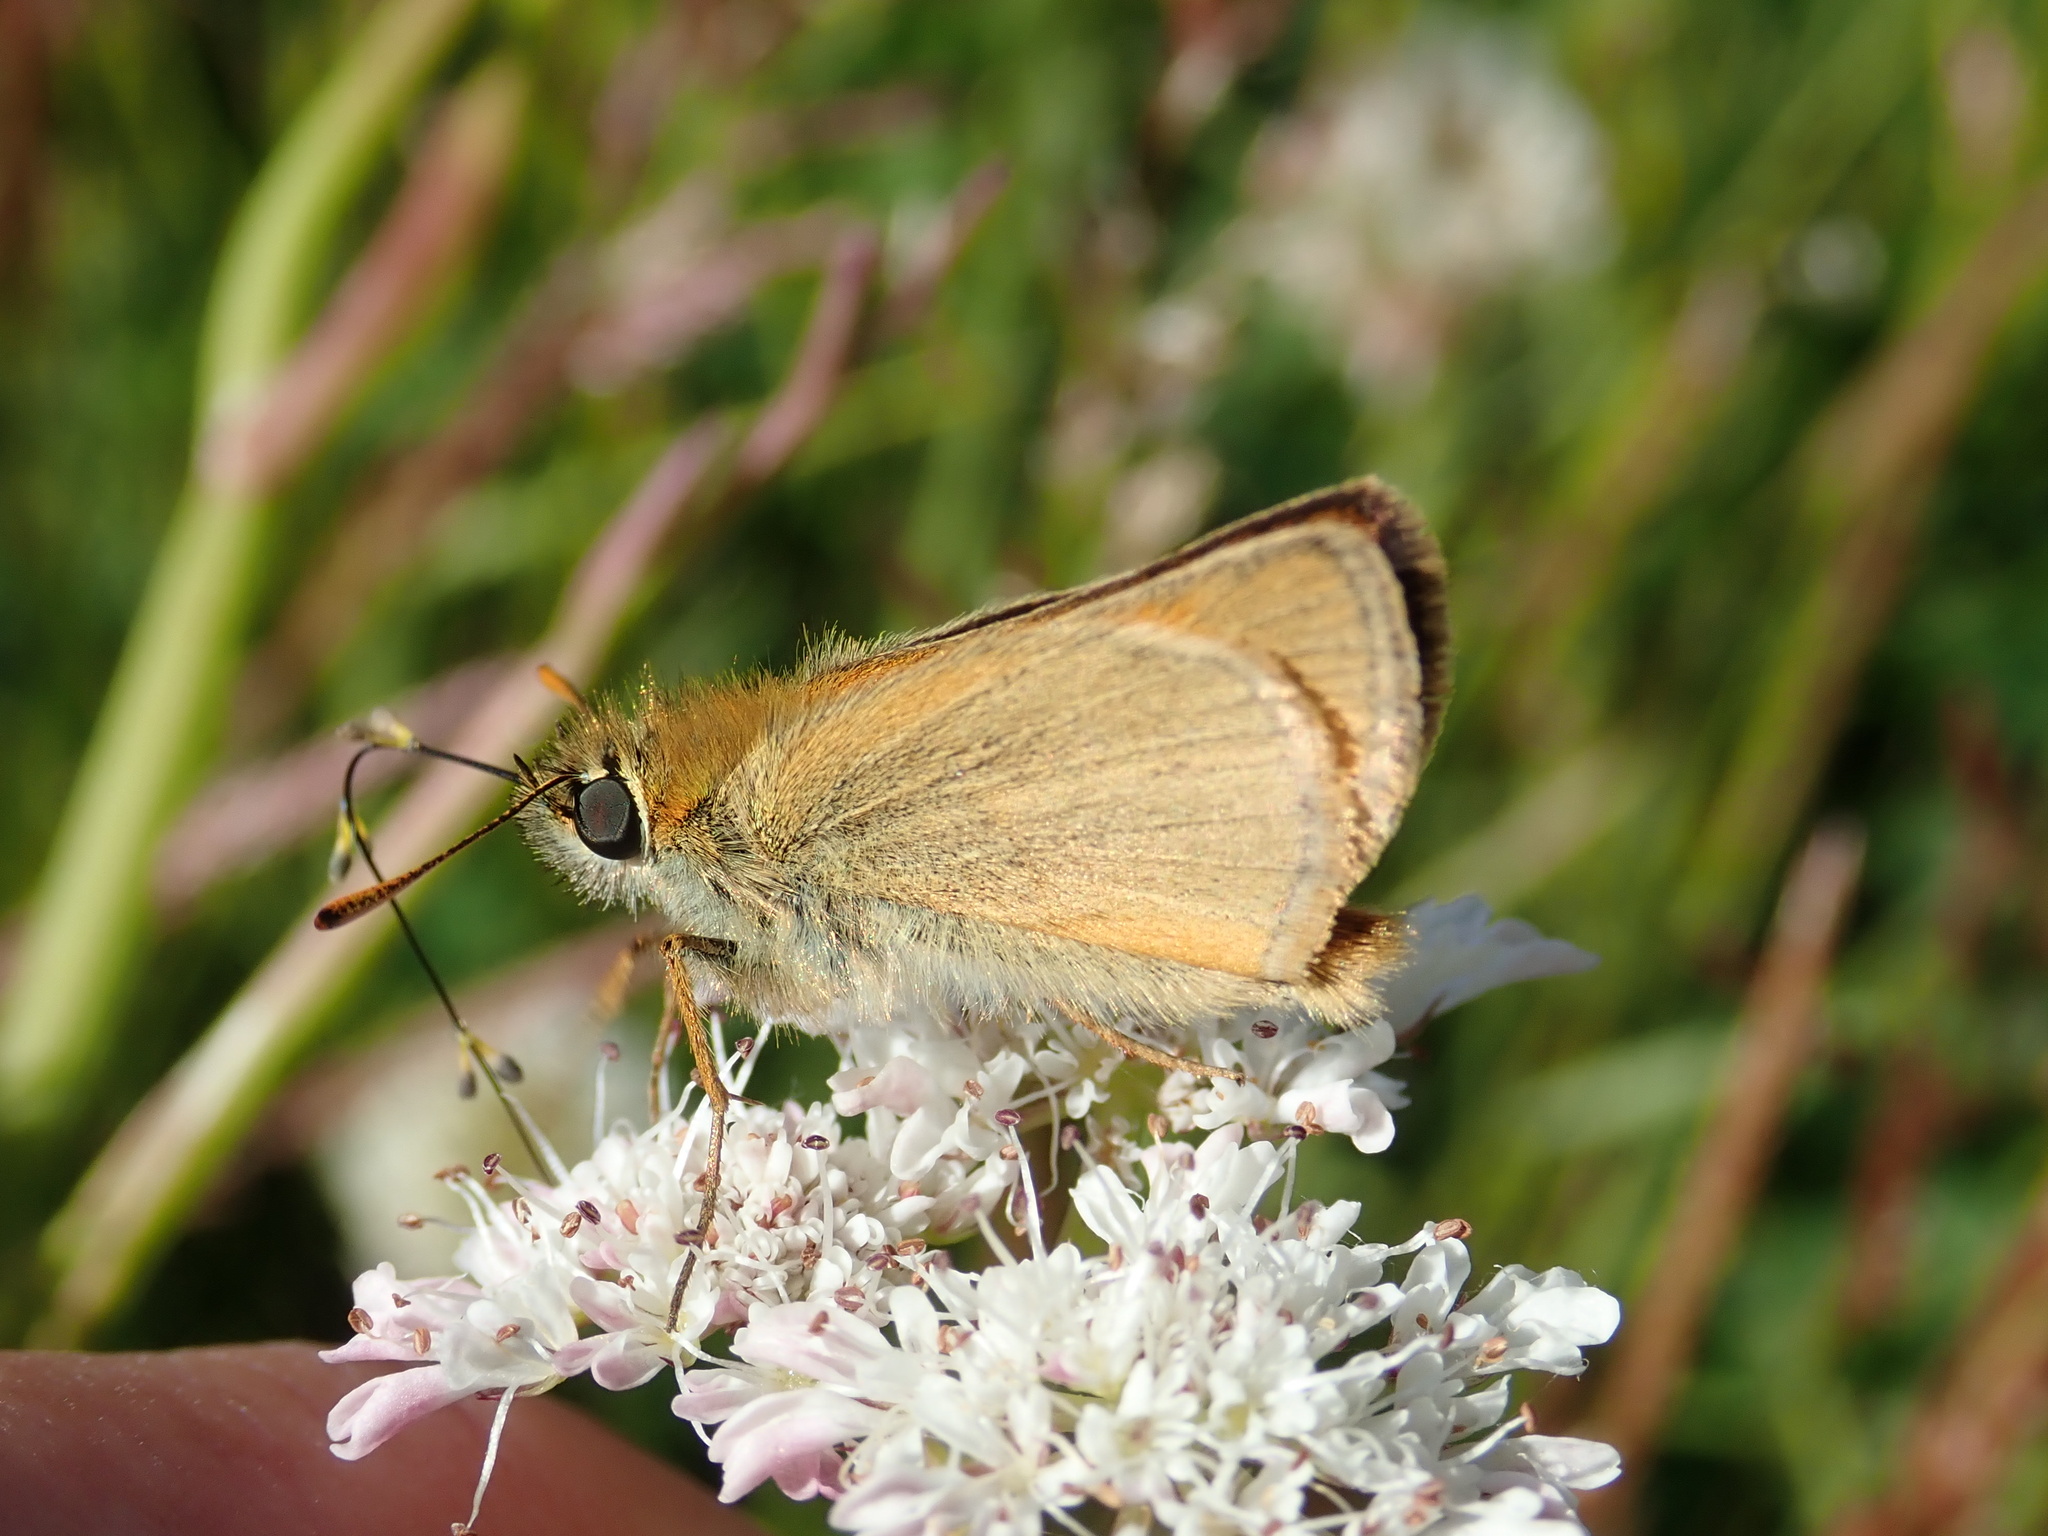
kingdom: Animalia
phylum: Arthropoda
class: Insecta
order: Lepidoptera
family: Hesperiidae
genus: Thymelicus
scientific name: Thymelicus sylvestris
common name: Small skipper
